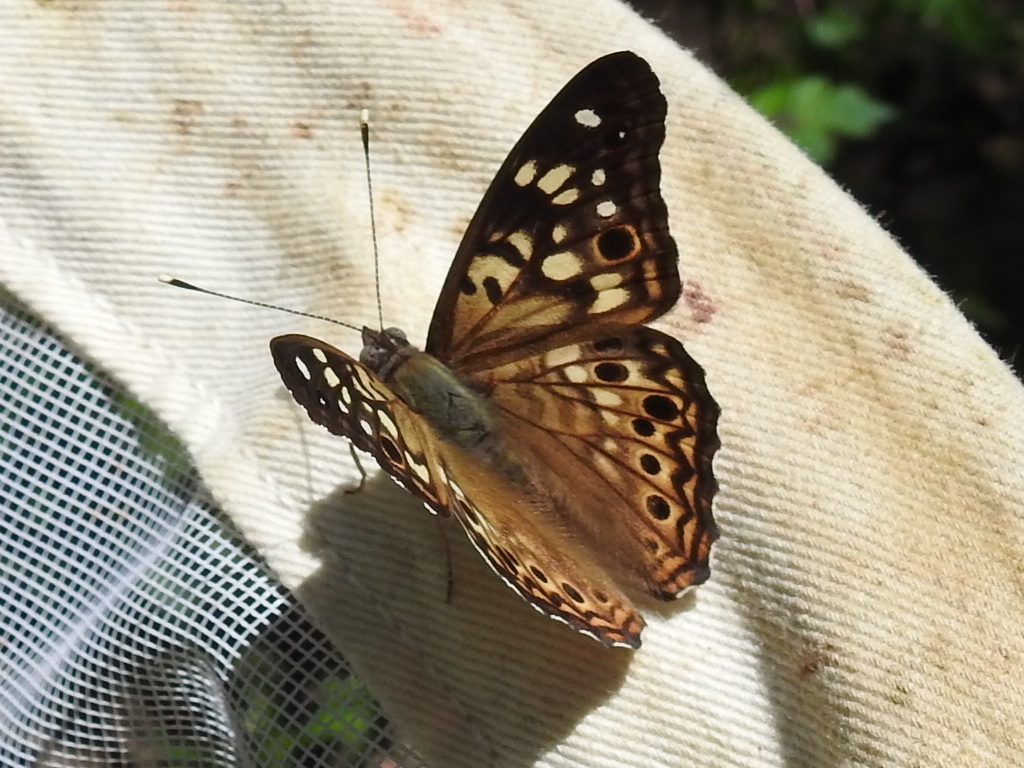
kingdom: Animalia
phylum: Arthropoda
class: Insecta
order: Lepidoptera
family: Nymphalidae
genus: Asterocampa
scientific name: Asterocampa celtis
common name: Hackberry emperor
